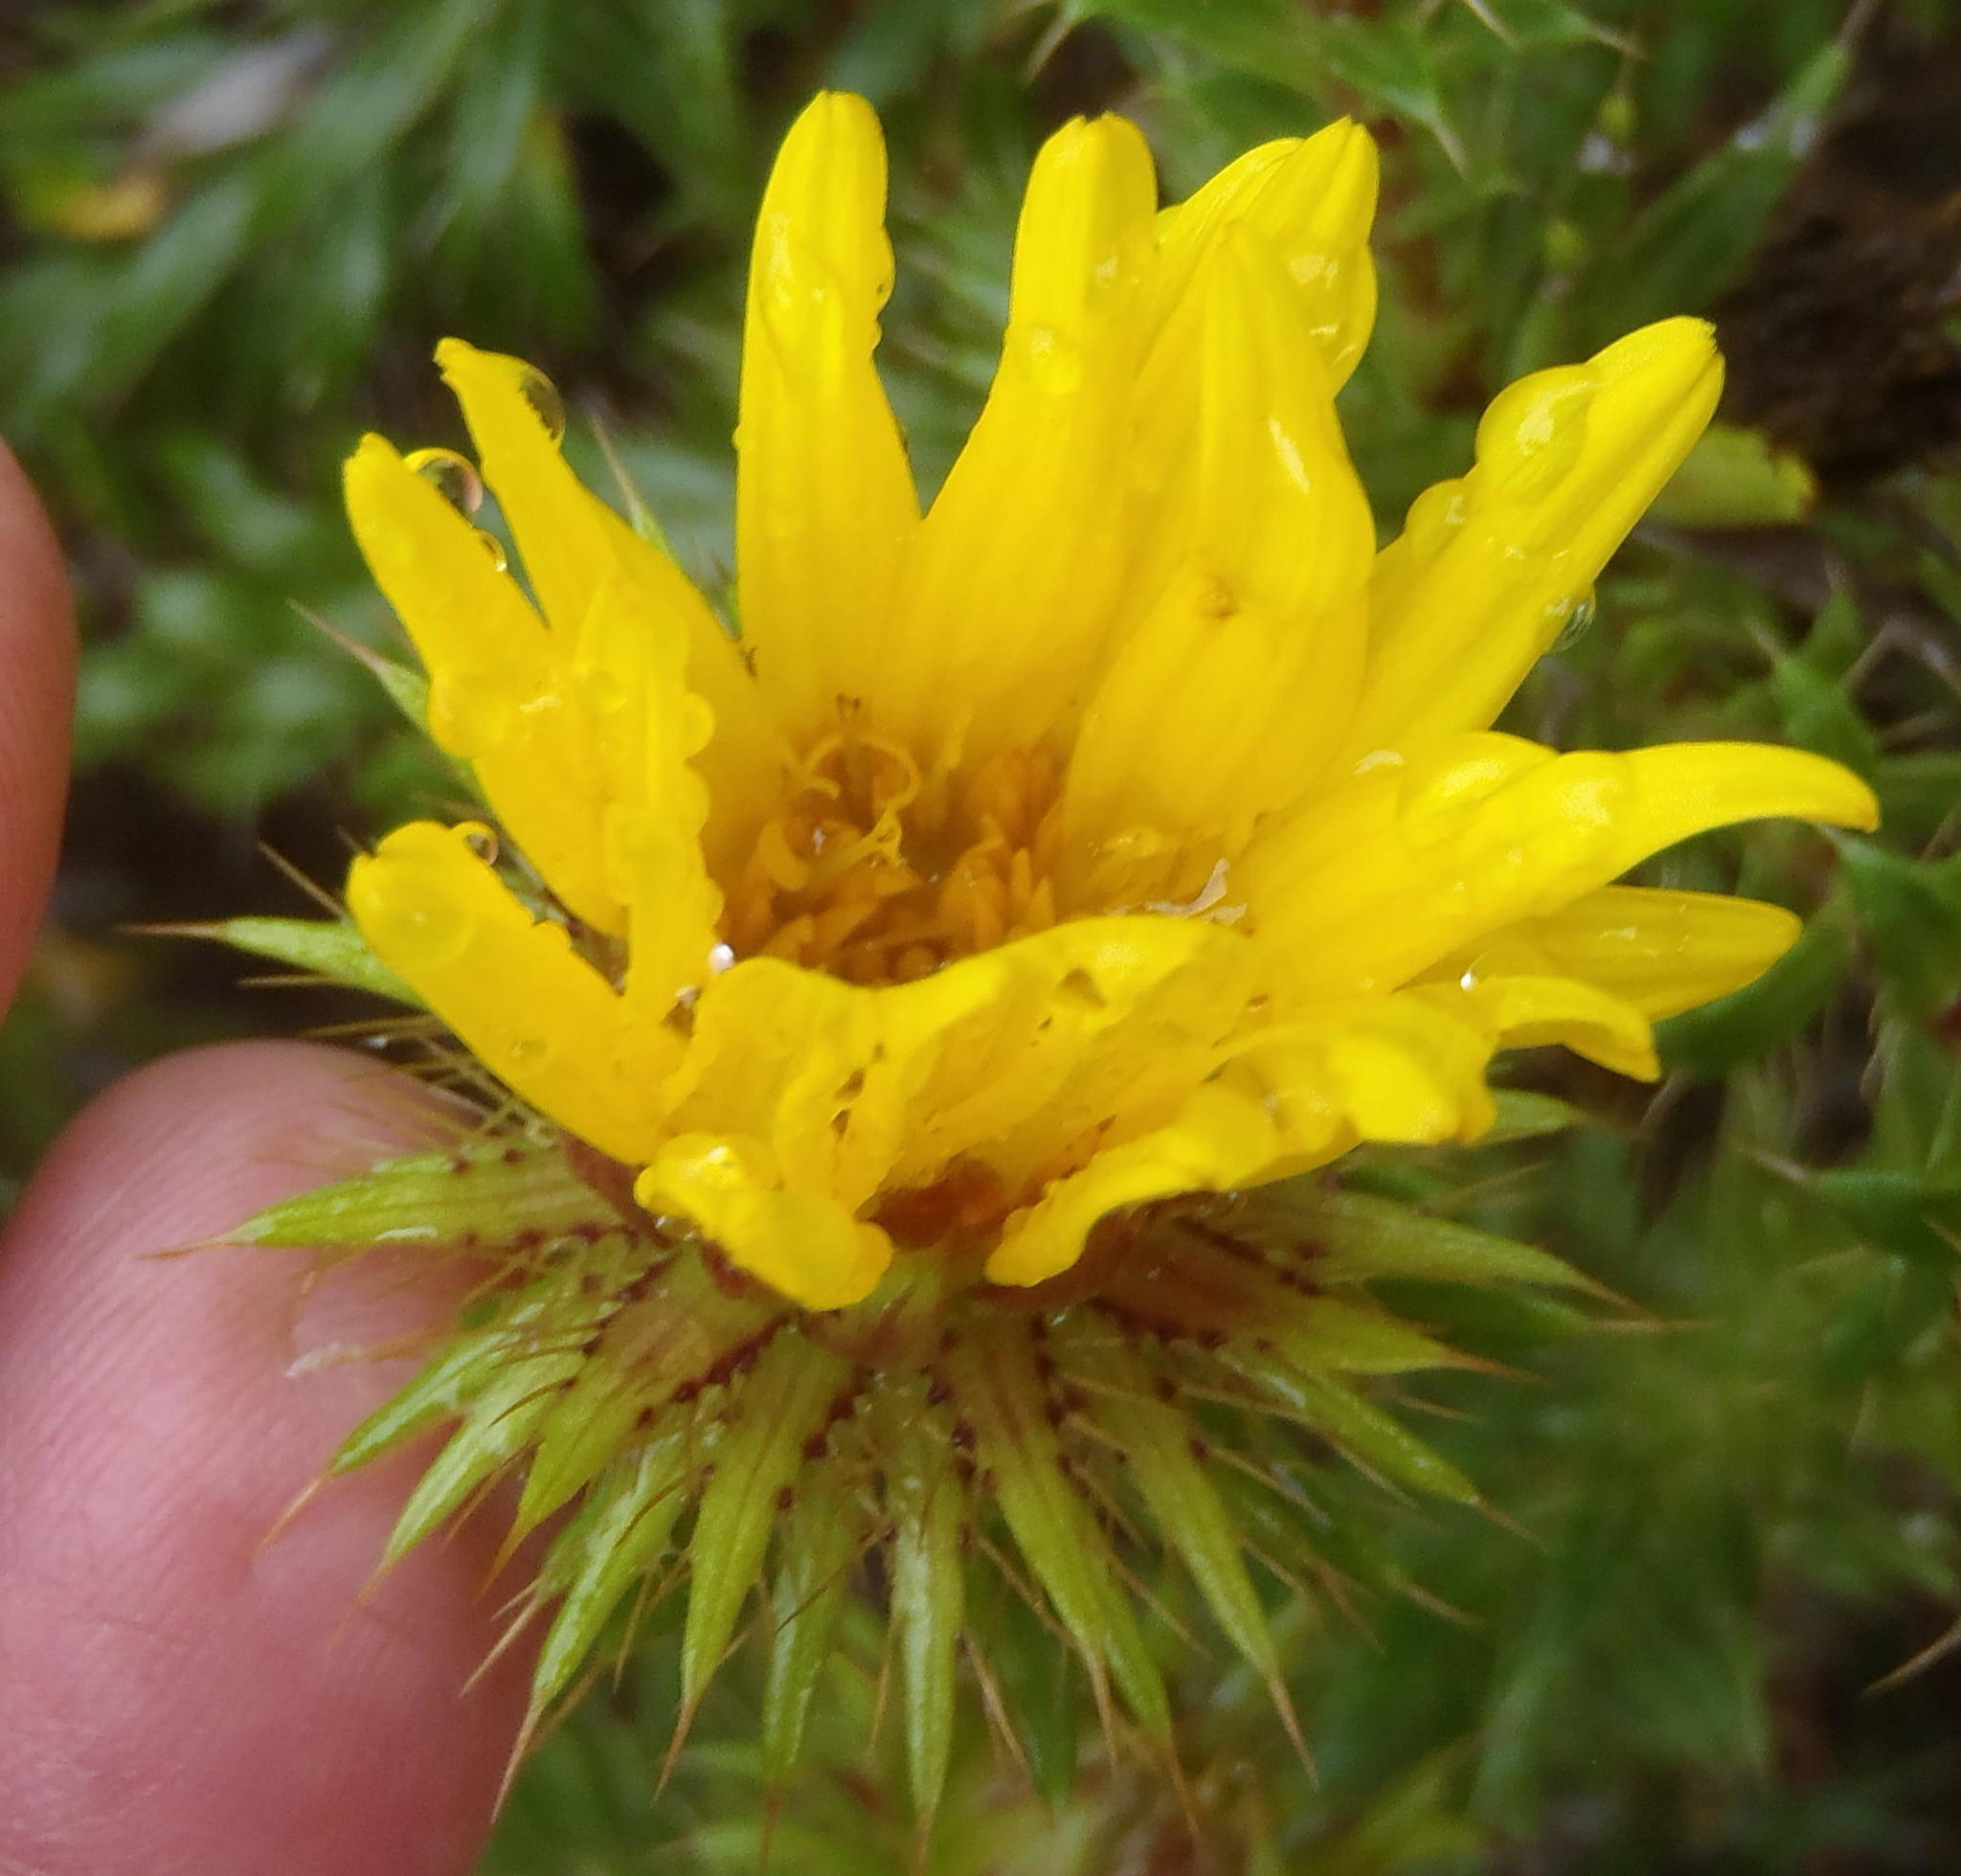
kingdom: Plantae
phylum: Tracheophyta
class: Magnoliopsida
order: Asterales
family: Asteraceae
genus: Cullumia
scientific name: Cullumia carlinoides
